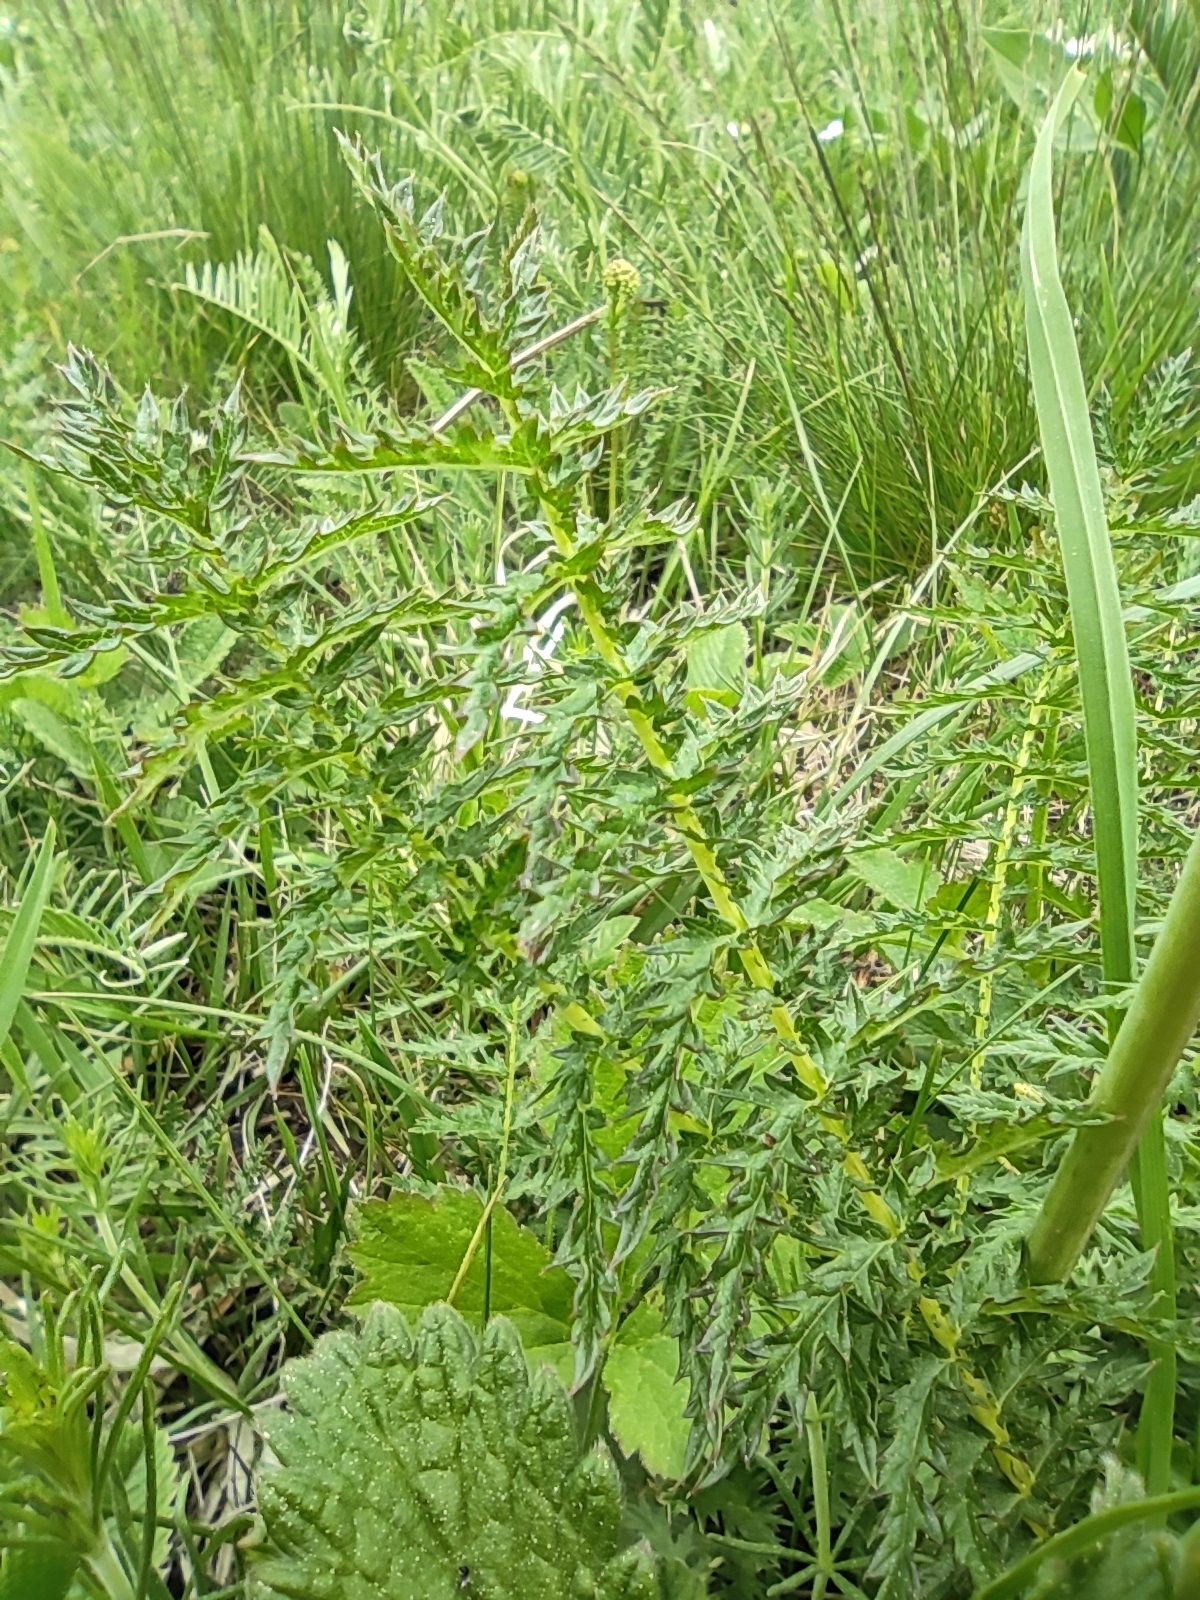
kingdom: Plantae
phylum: Tracheophyta
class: Magnoliopsida
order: Rosales
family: Rosaceae
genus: Filipendula
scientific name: Filipendula vulgaris
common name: Dropwort
